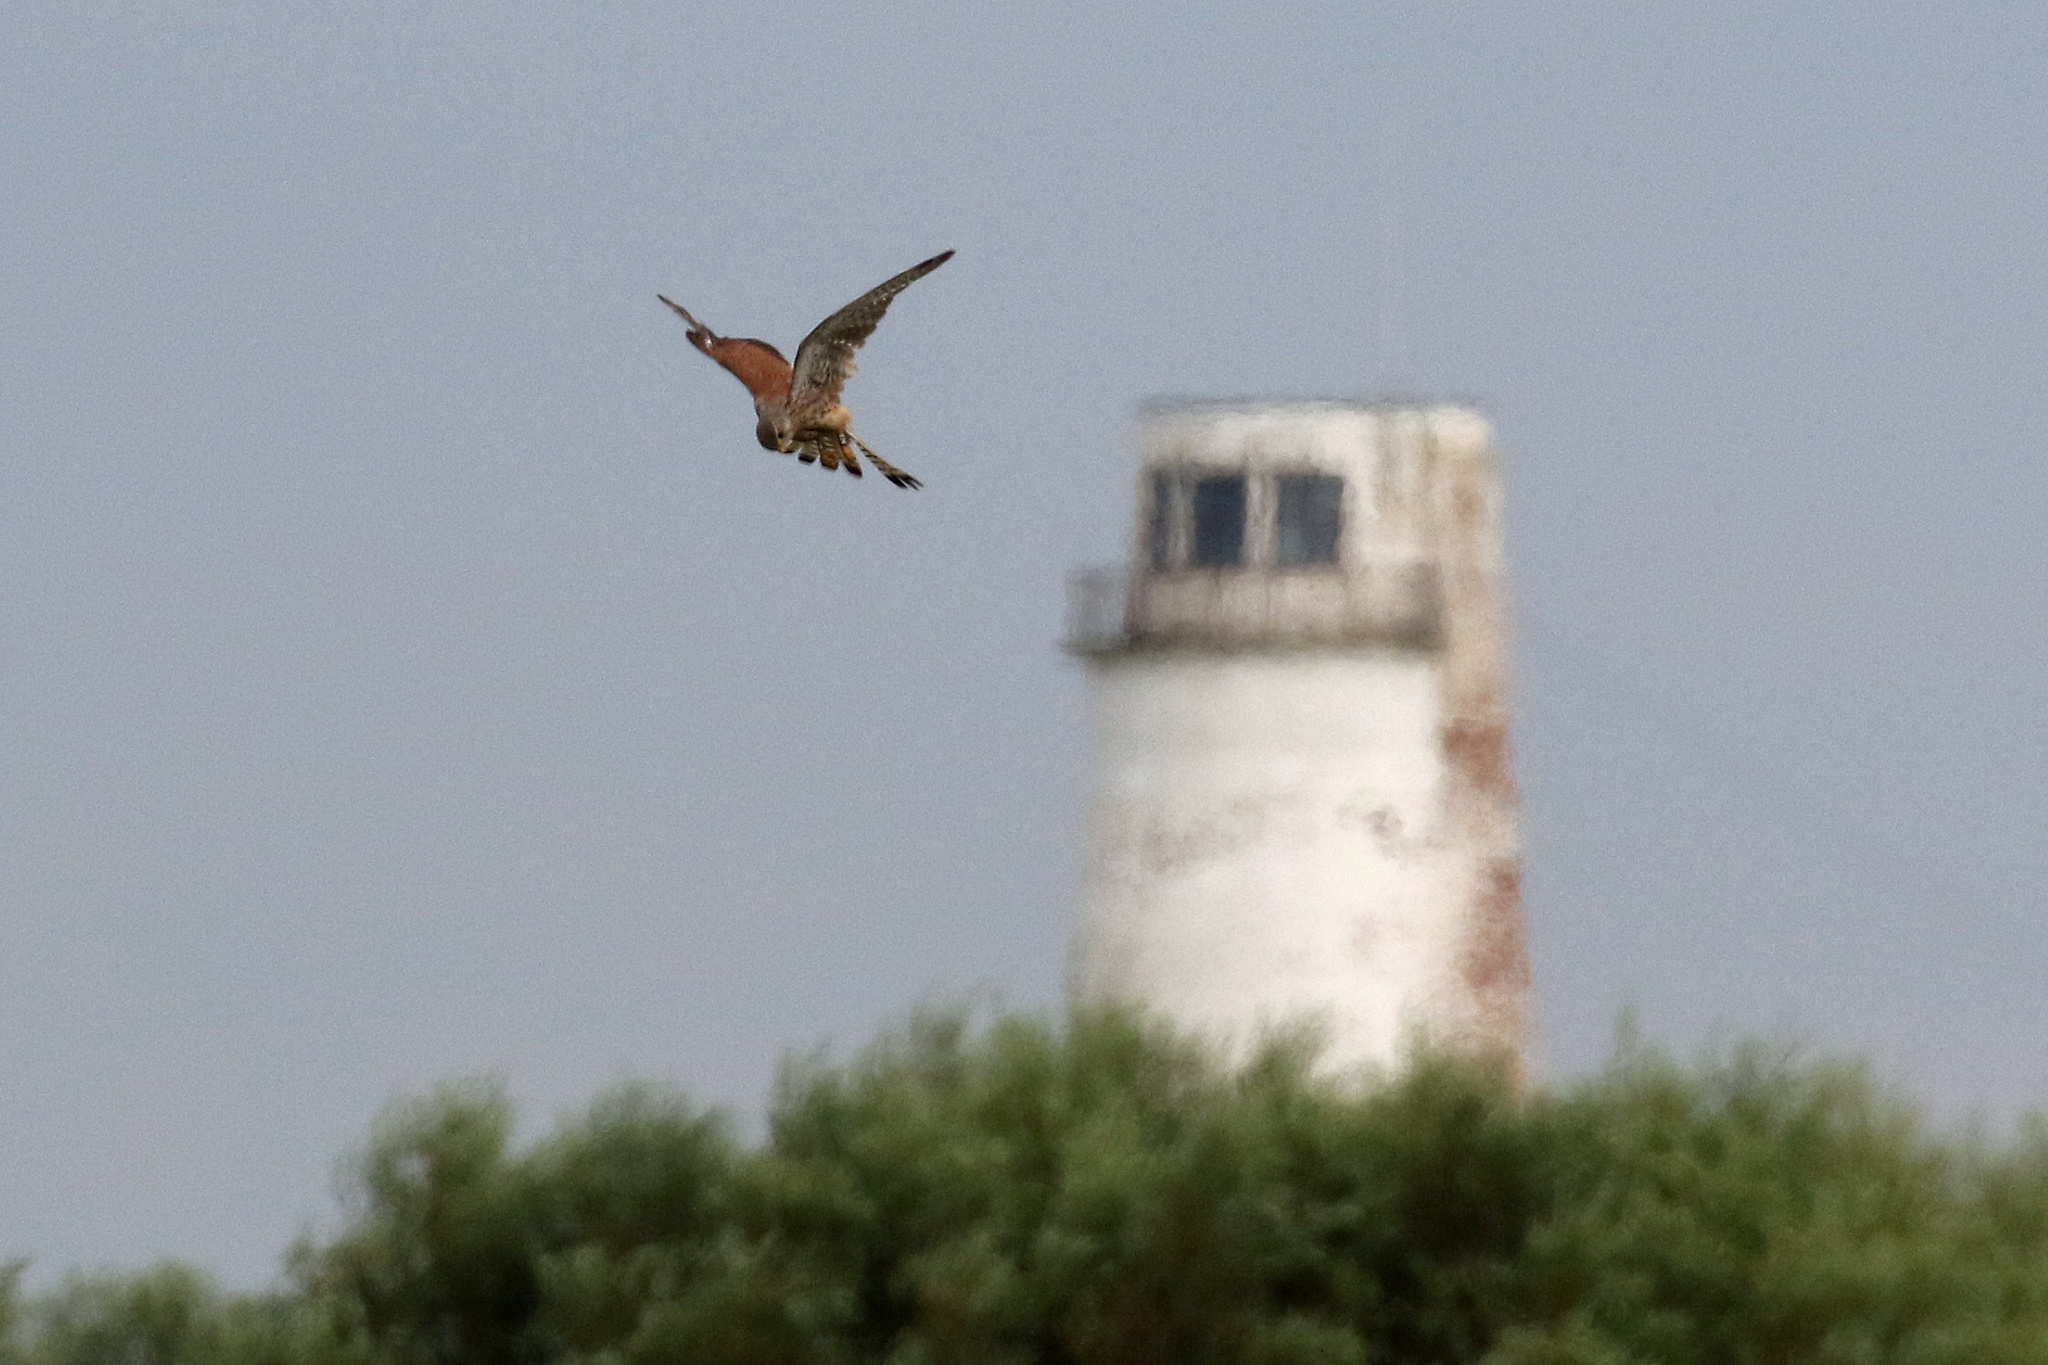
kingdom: Animalia
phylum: Chordata
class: Aves
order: Falconiformes
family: Falconidae
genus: Falco
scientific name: Falco tinnunculus
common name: Common kestrel
